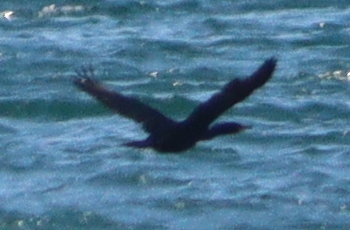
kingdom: Animalia
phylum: Chordata
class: Aves
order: Suliformes
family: Phalacrocoracidae
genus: Phalacrocorax
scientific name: Phalacrocorax carbo
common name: Great cormorant
